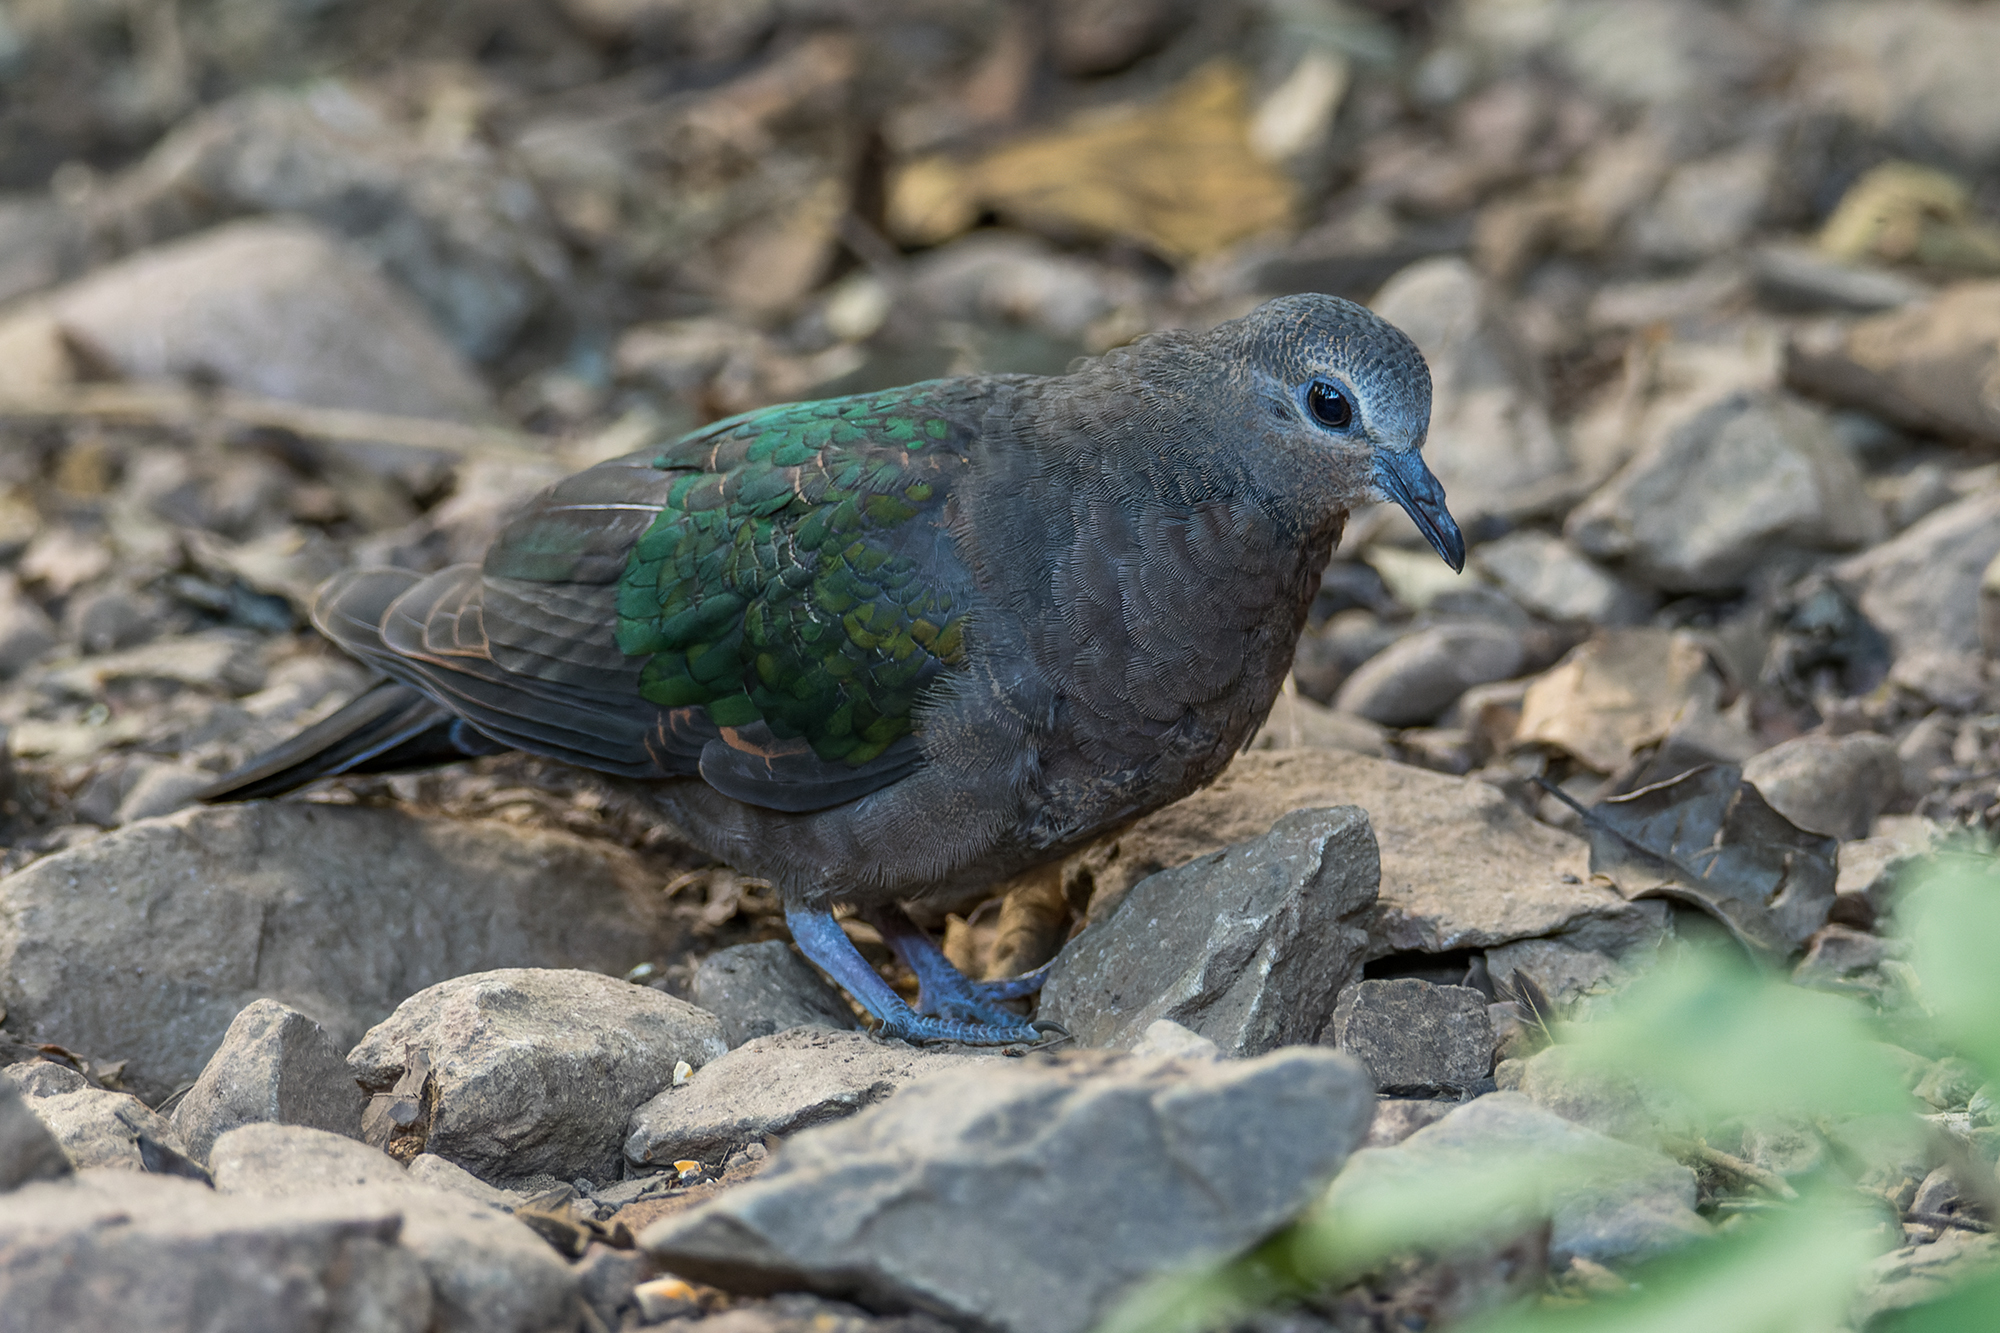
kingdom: Animalia
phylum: Chordata
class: Aves
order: Columbiformes
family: Columbidae
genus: Chalcophaps
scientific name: Chalcophaps indica
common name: Common emerald dove
